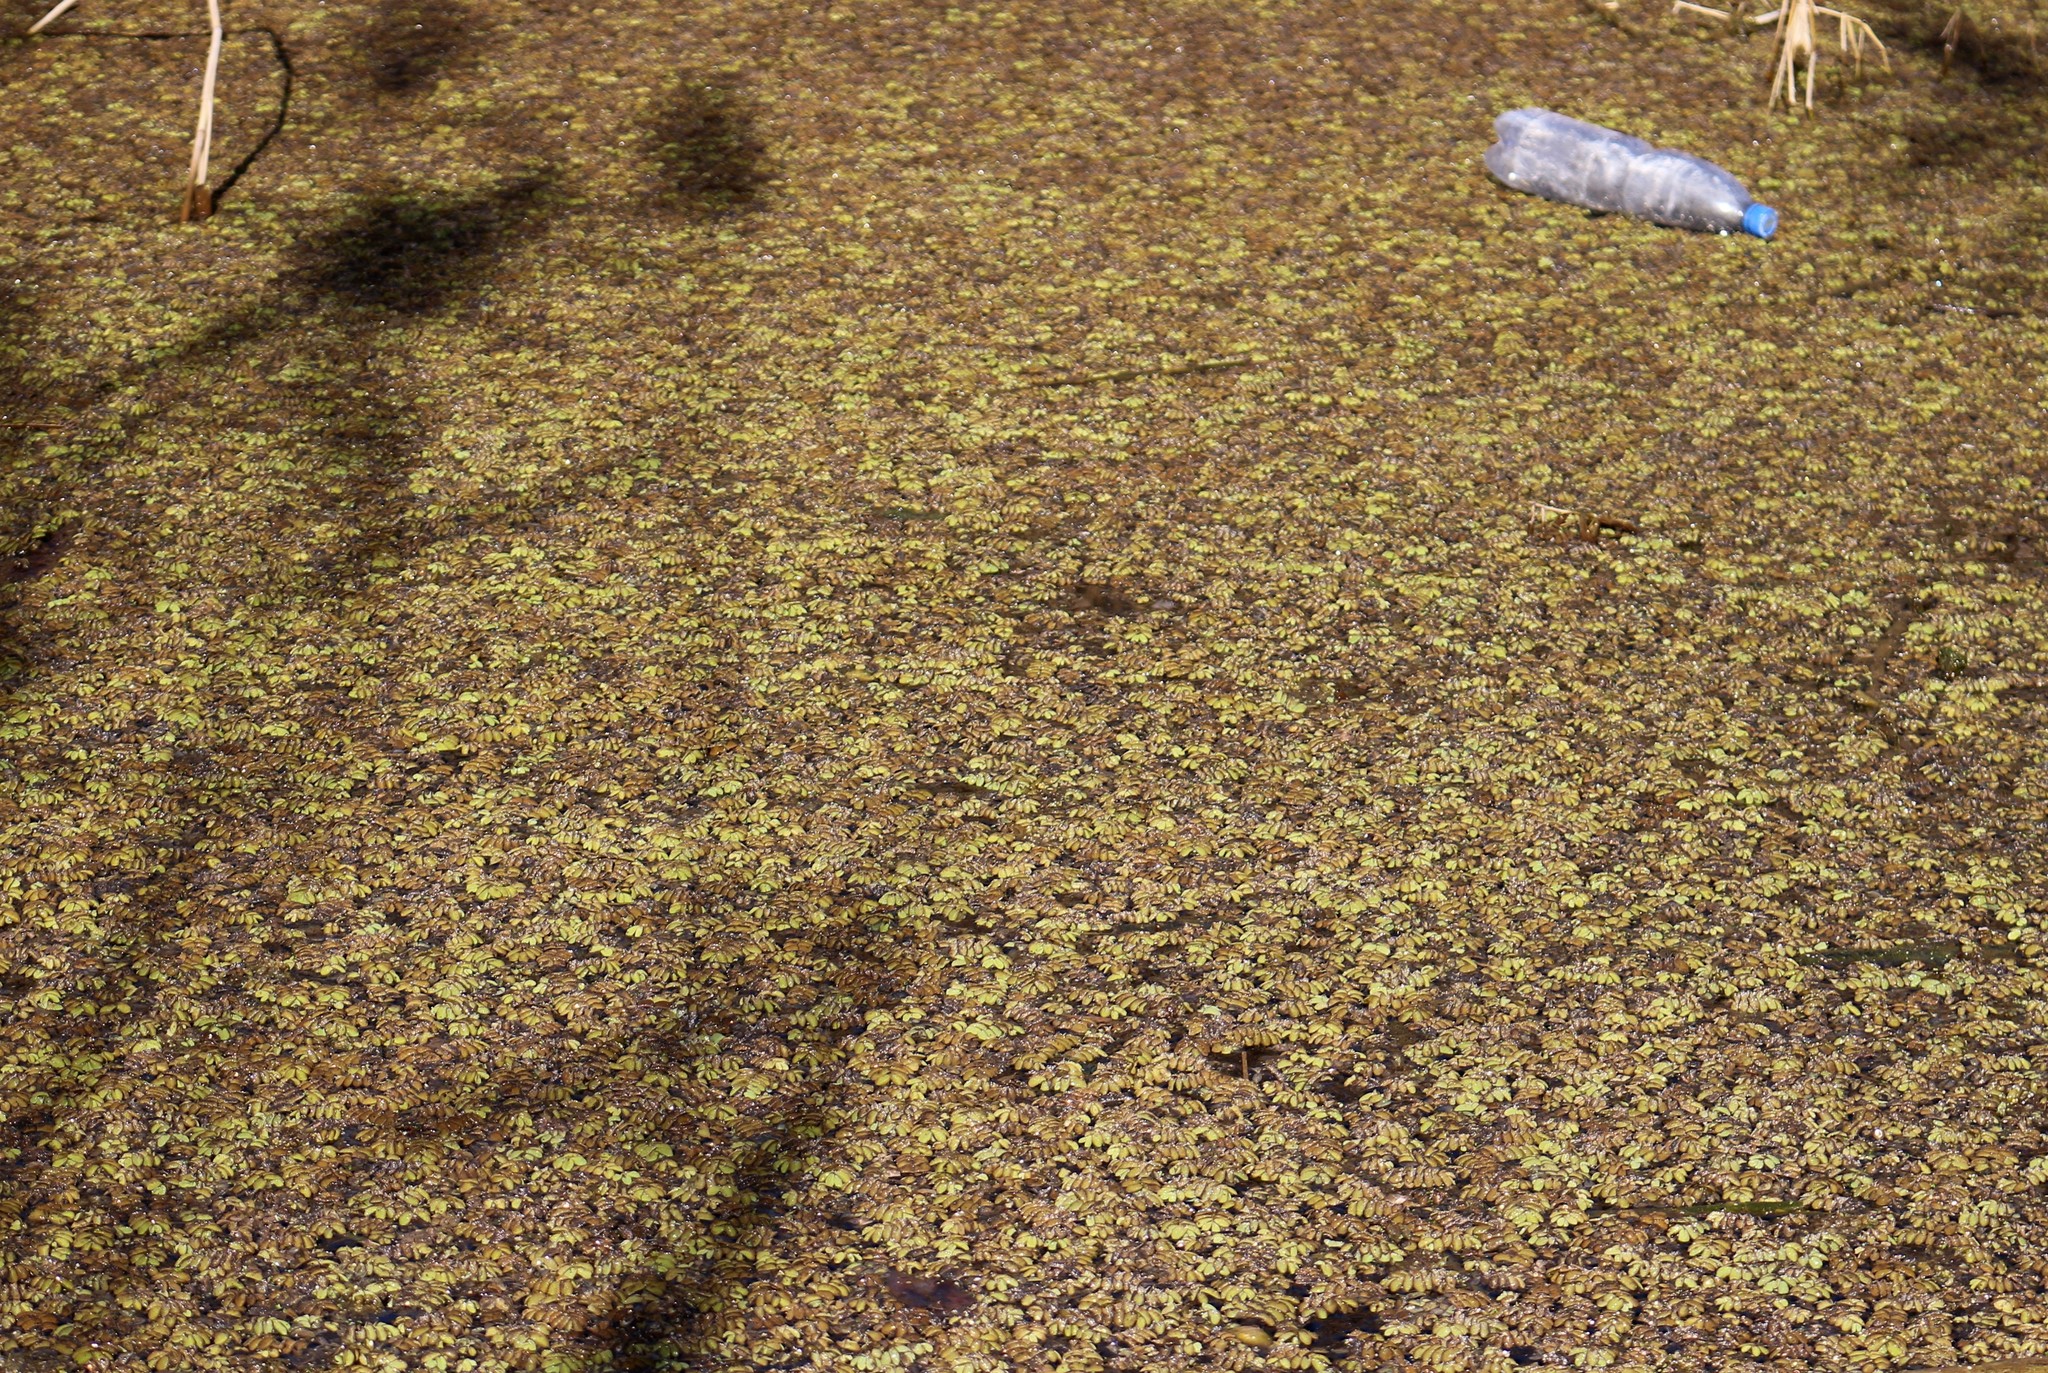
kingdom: Plantae
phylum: Tracheophyta
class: Polypodiopsida
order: Salviniales
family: Salviniaceae
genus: Salvinia
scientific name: Salvinia natans
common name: Floating fern
